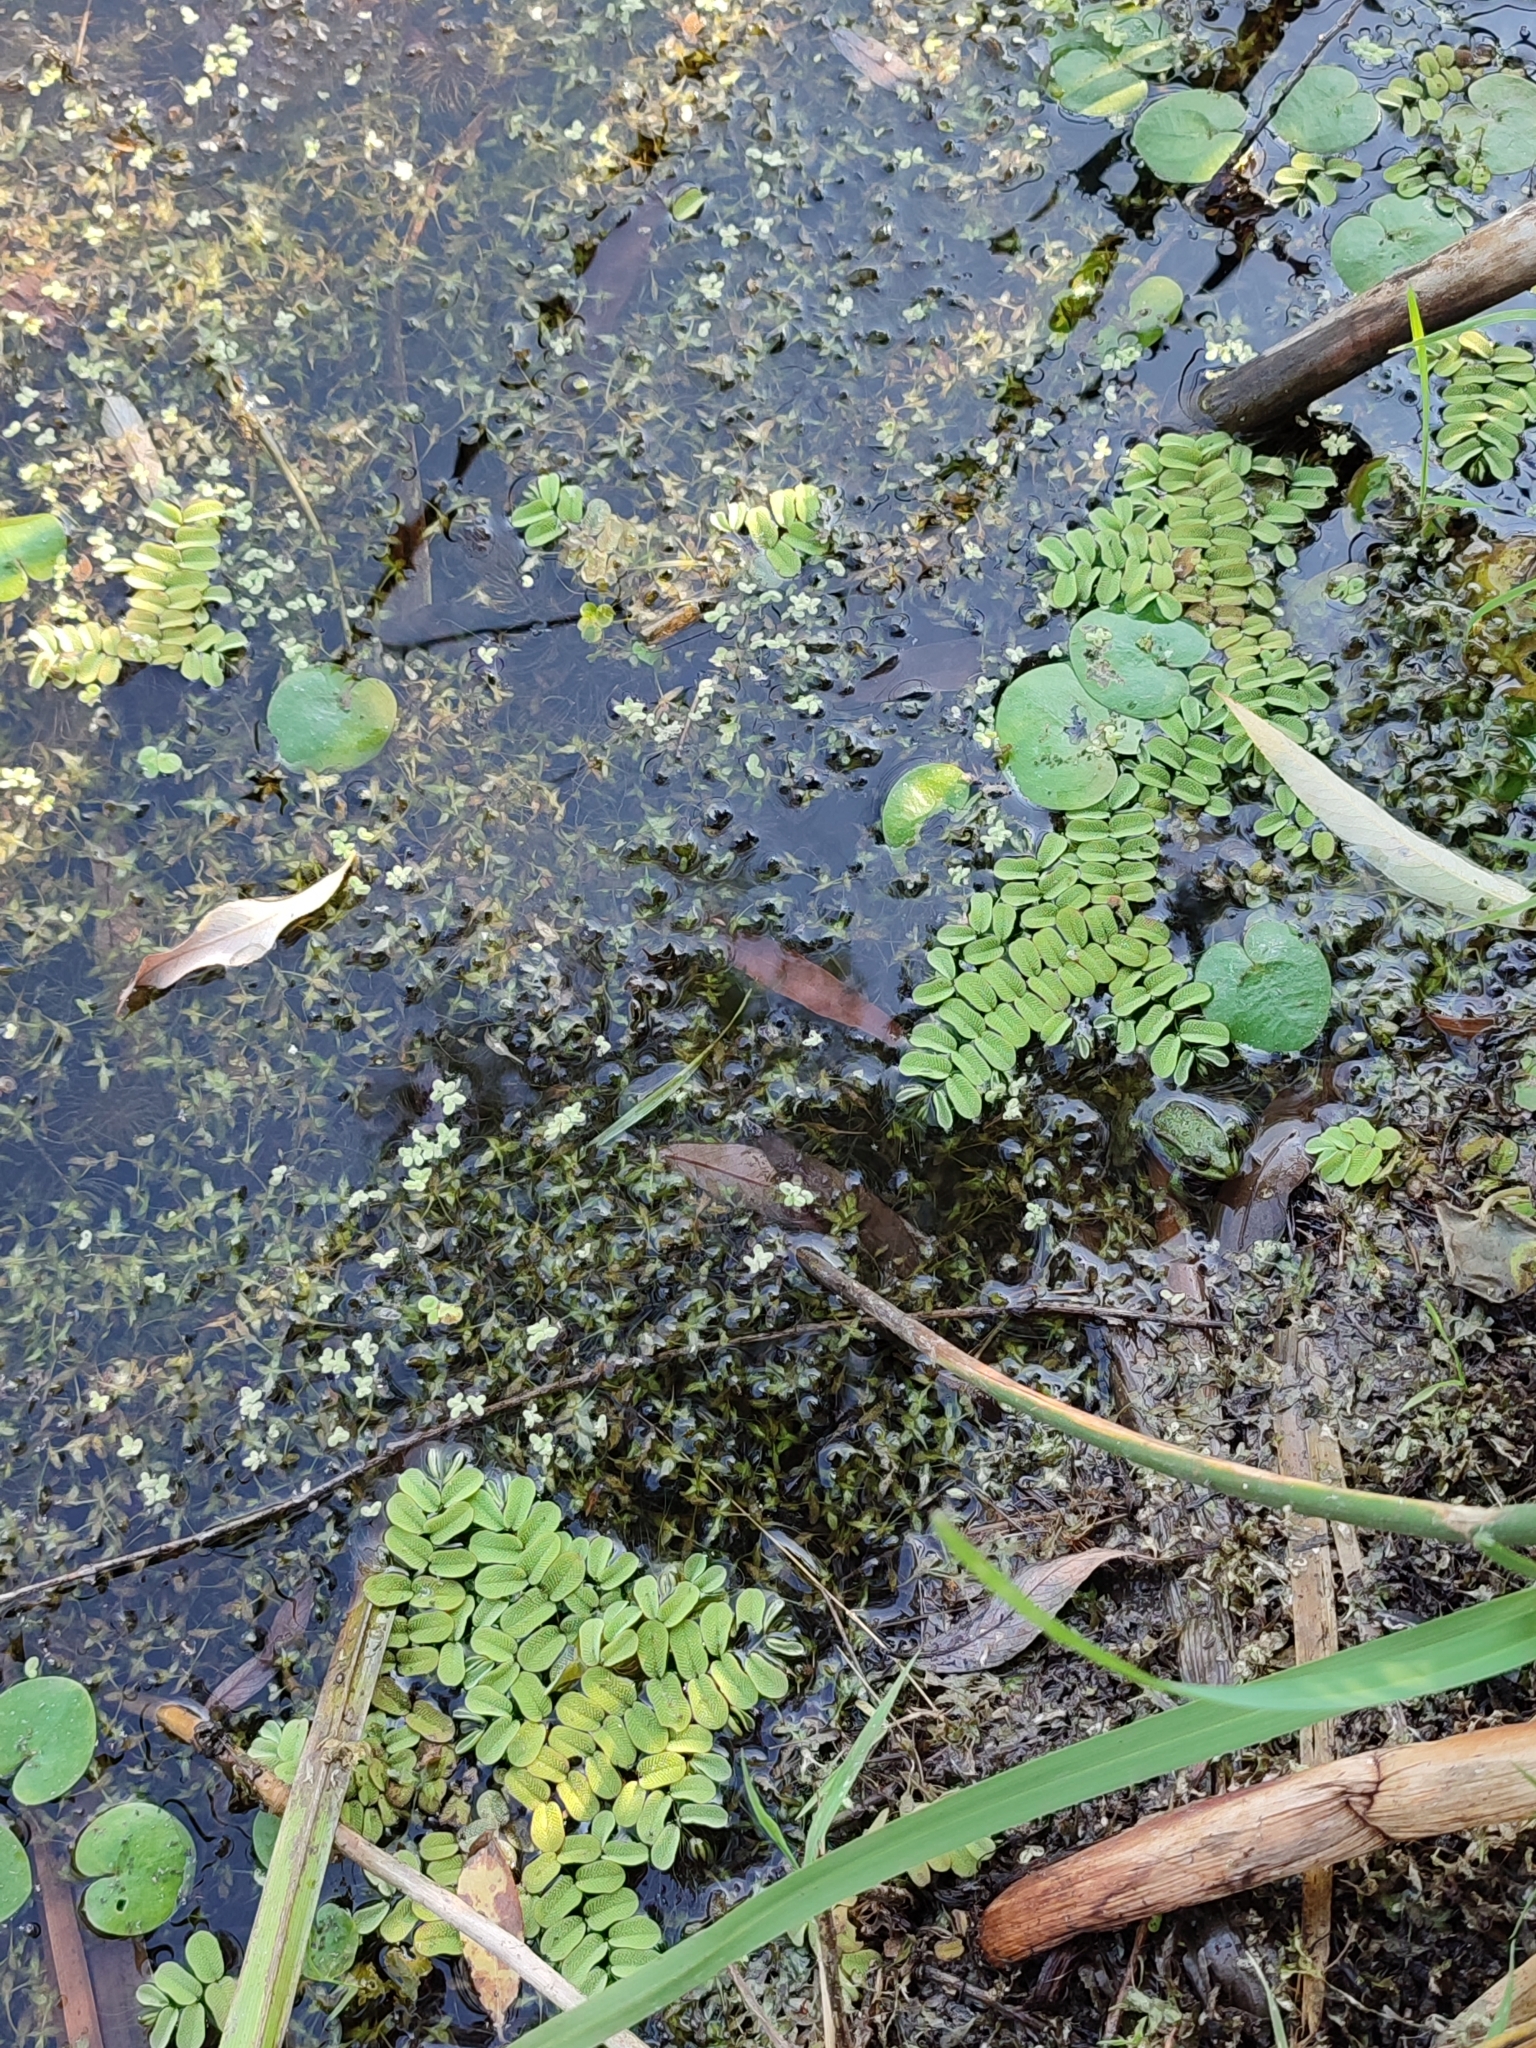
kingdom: Plantae
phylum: Tracheophyta
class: Polypodiopsida
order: Salviniales
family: Salviniaceae
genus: Salvinia
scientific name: Salvinia natans
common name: Floating fern
